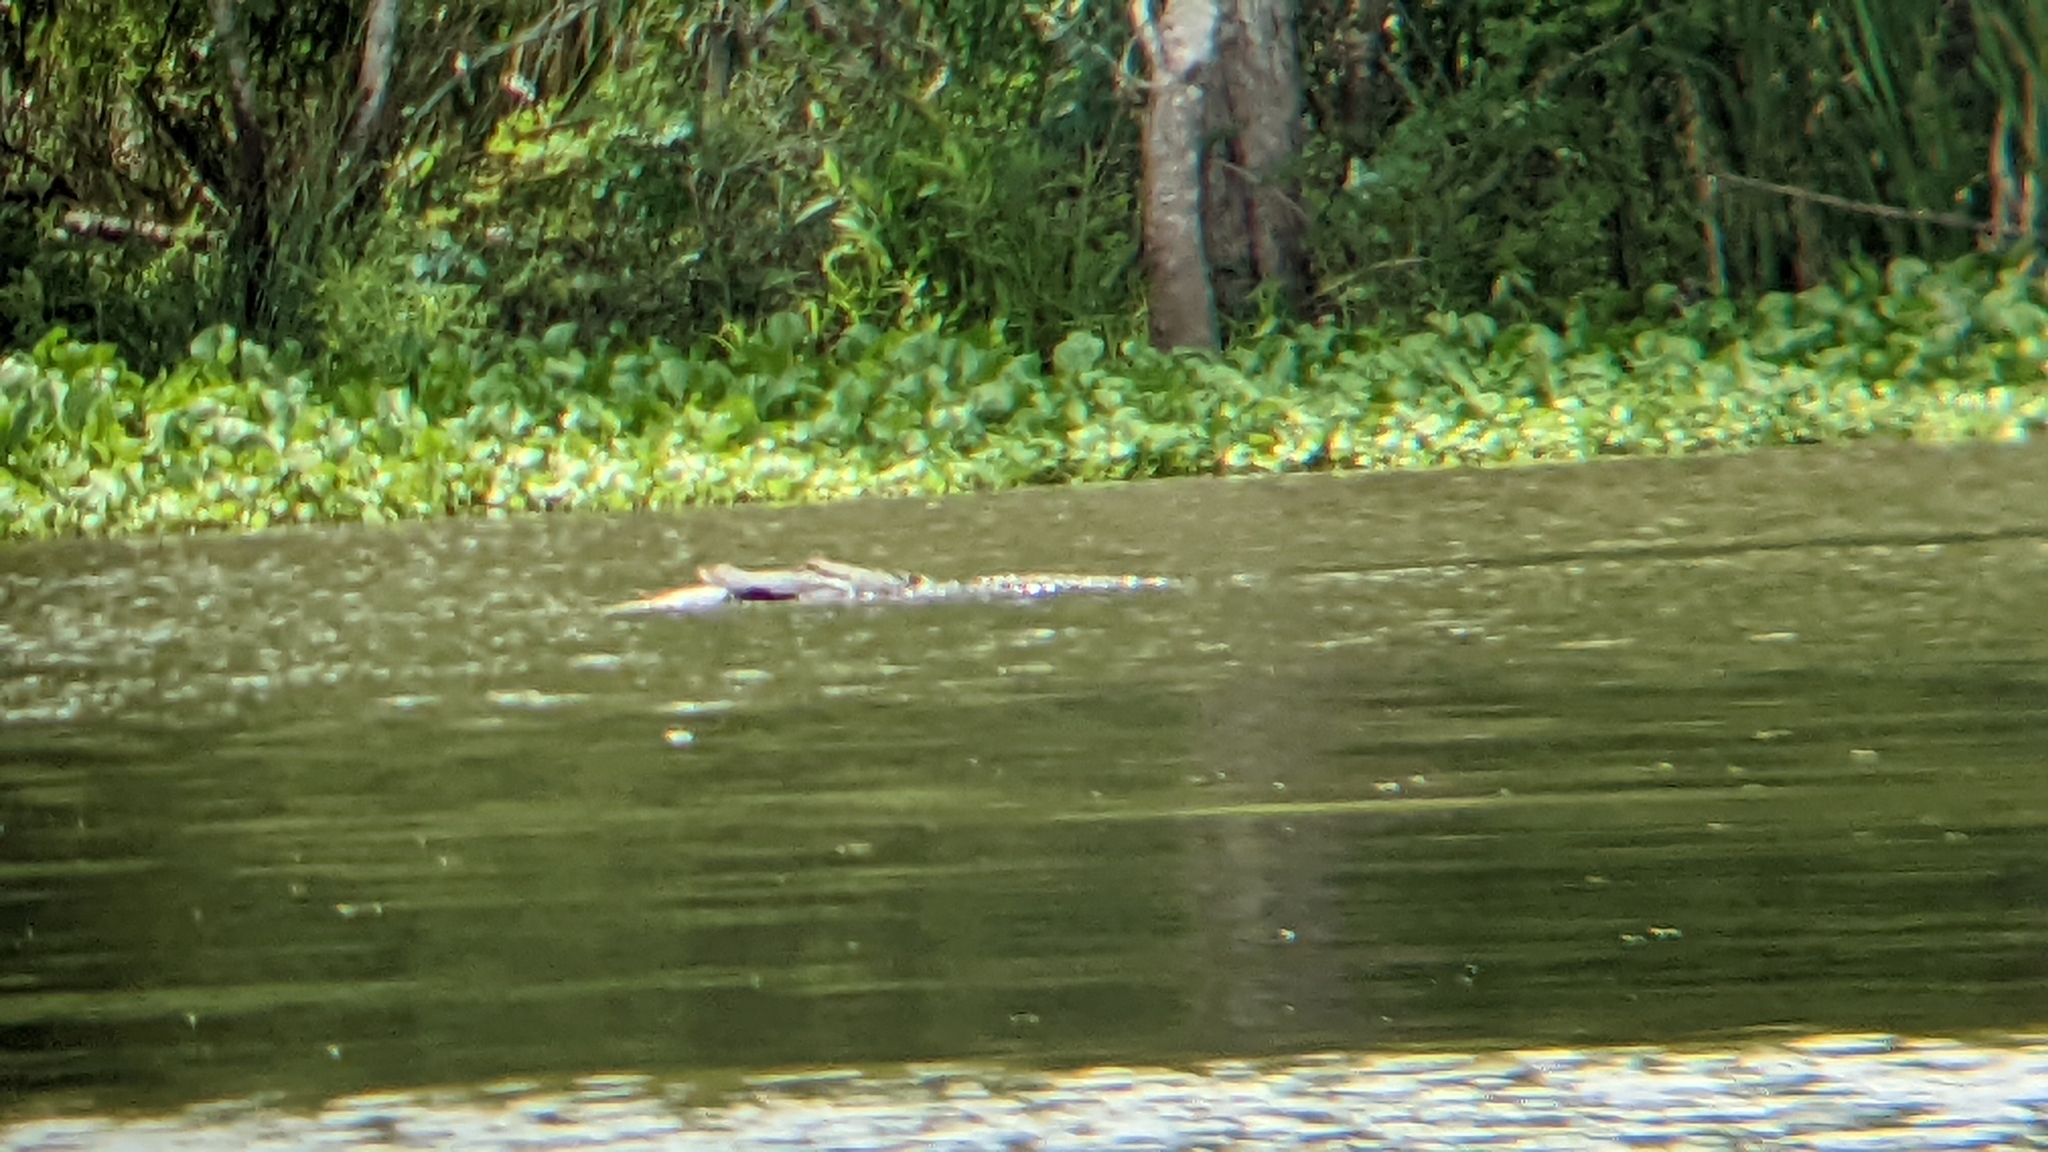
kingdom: Animalia
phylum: Chordata
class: Crocodylia
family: Alligatoridae
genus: Alligator
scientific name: Alligator mississippiensis
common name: American alligator
